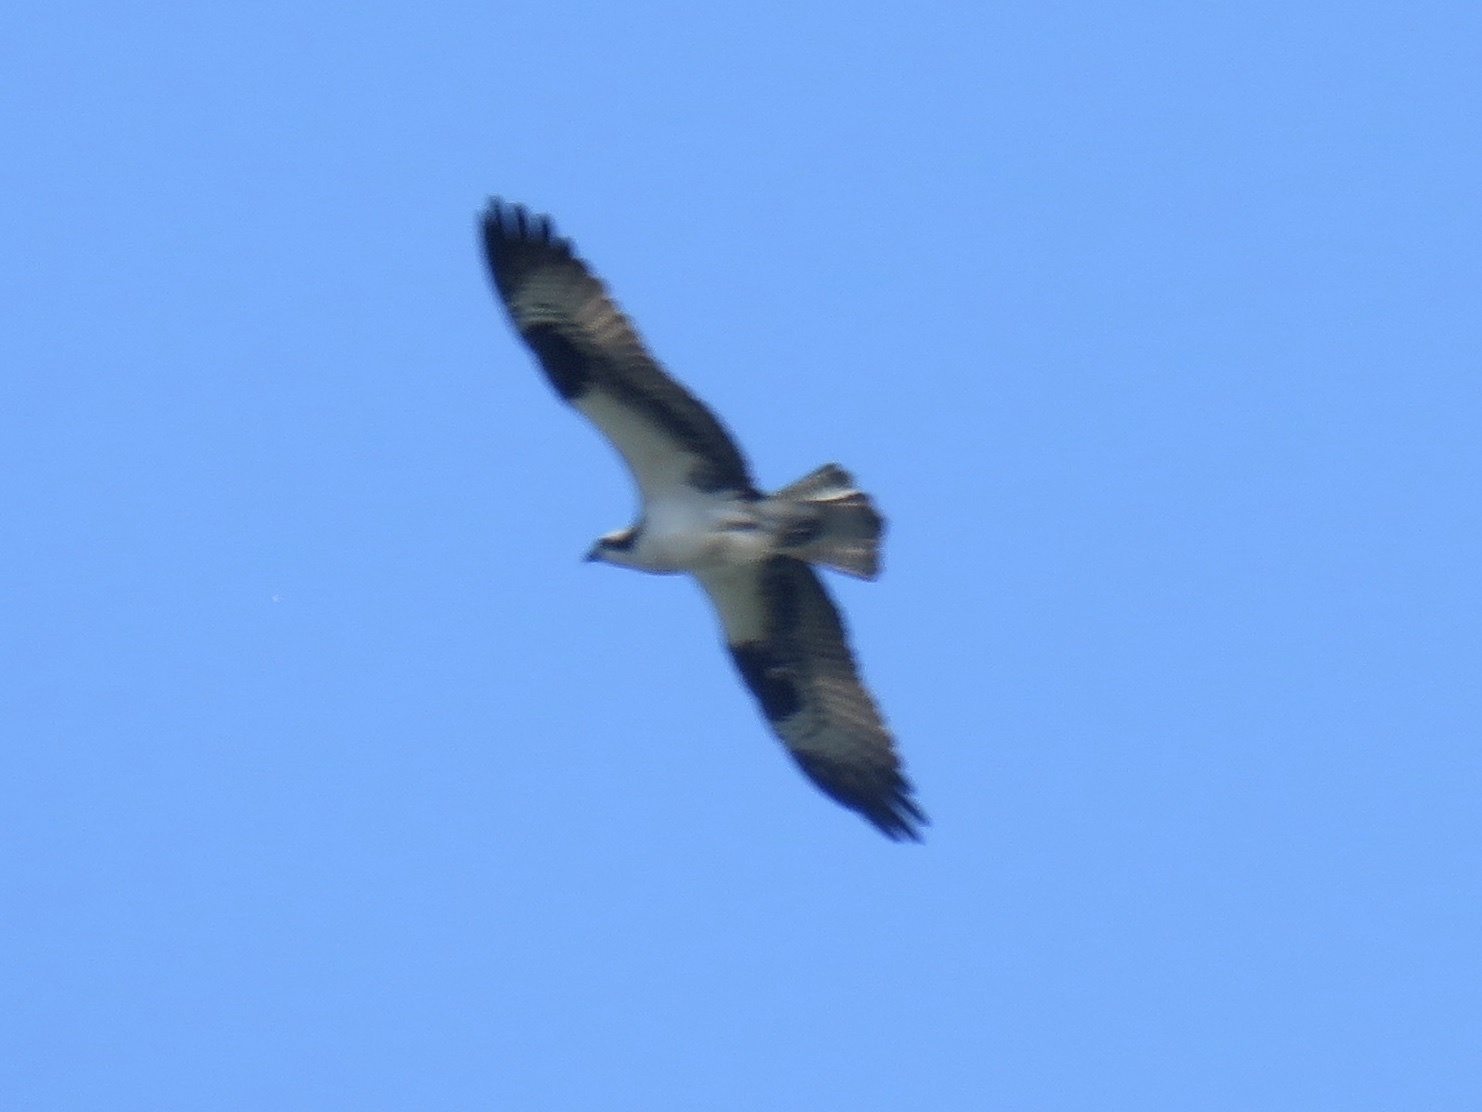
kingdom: Animalia
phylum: Chordata
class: Aves
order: Accipitriformes
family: Pandionidae
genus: Pandion
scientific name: Pandion haliaetus
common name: Osprey
